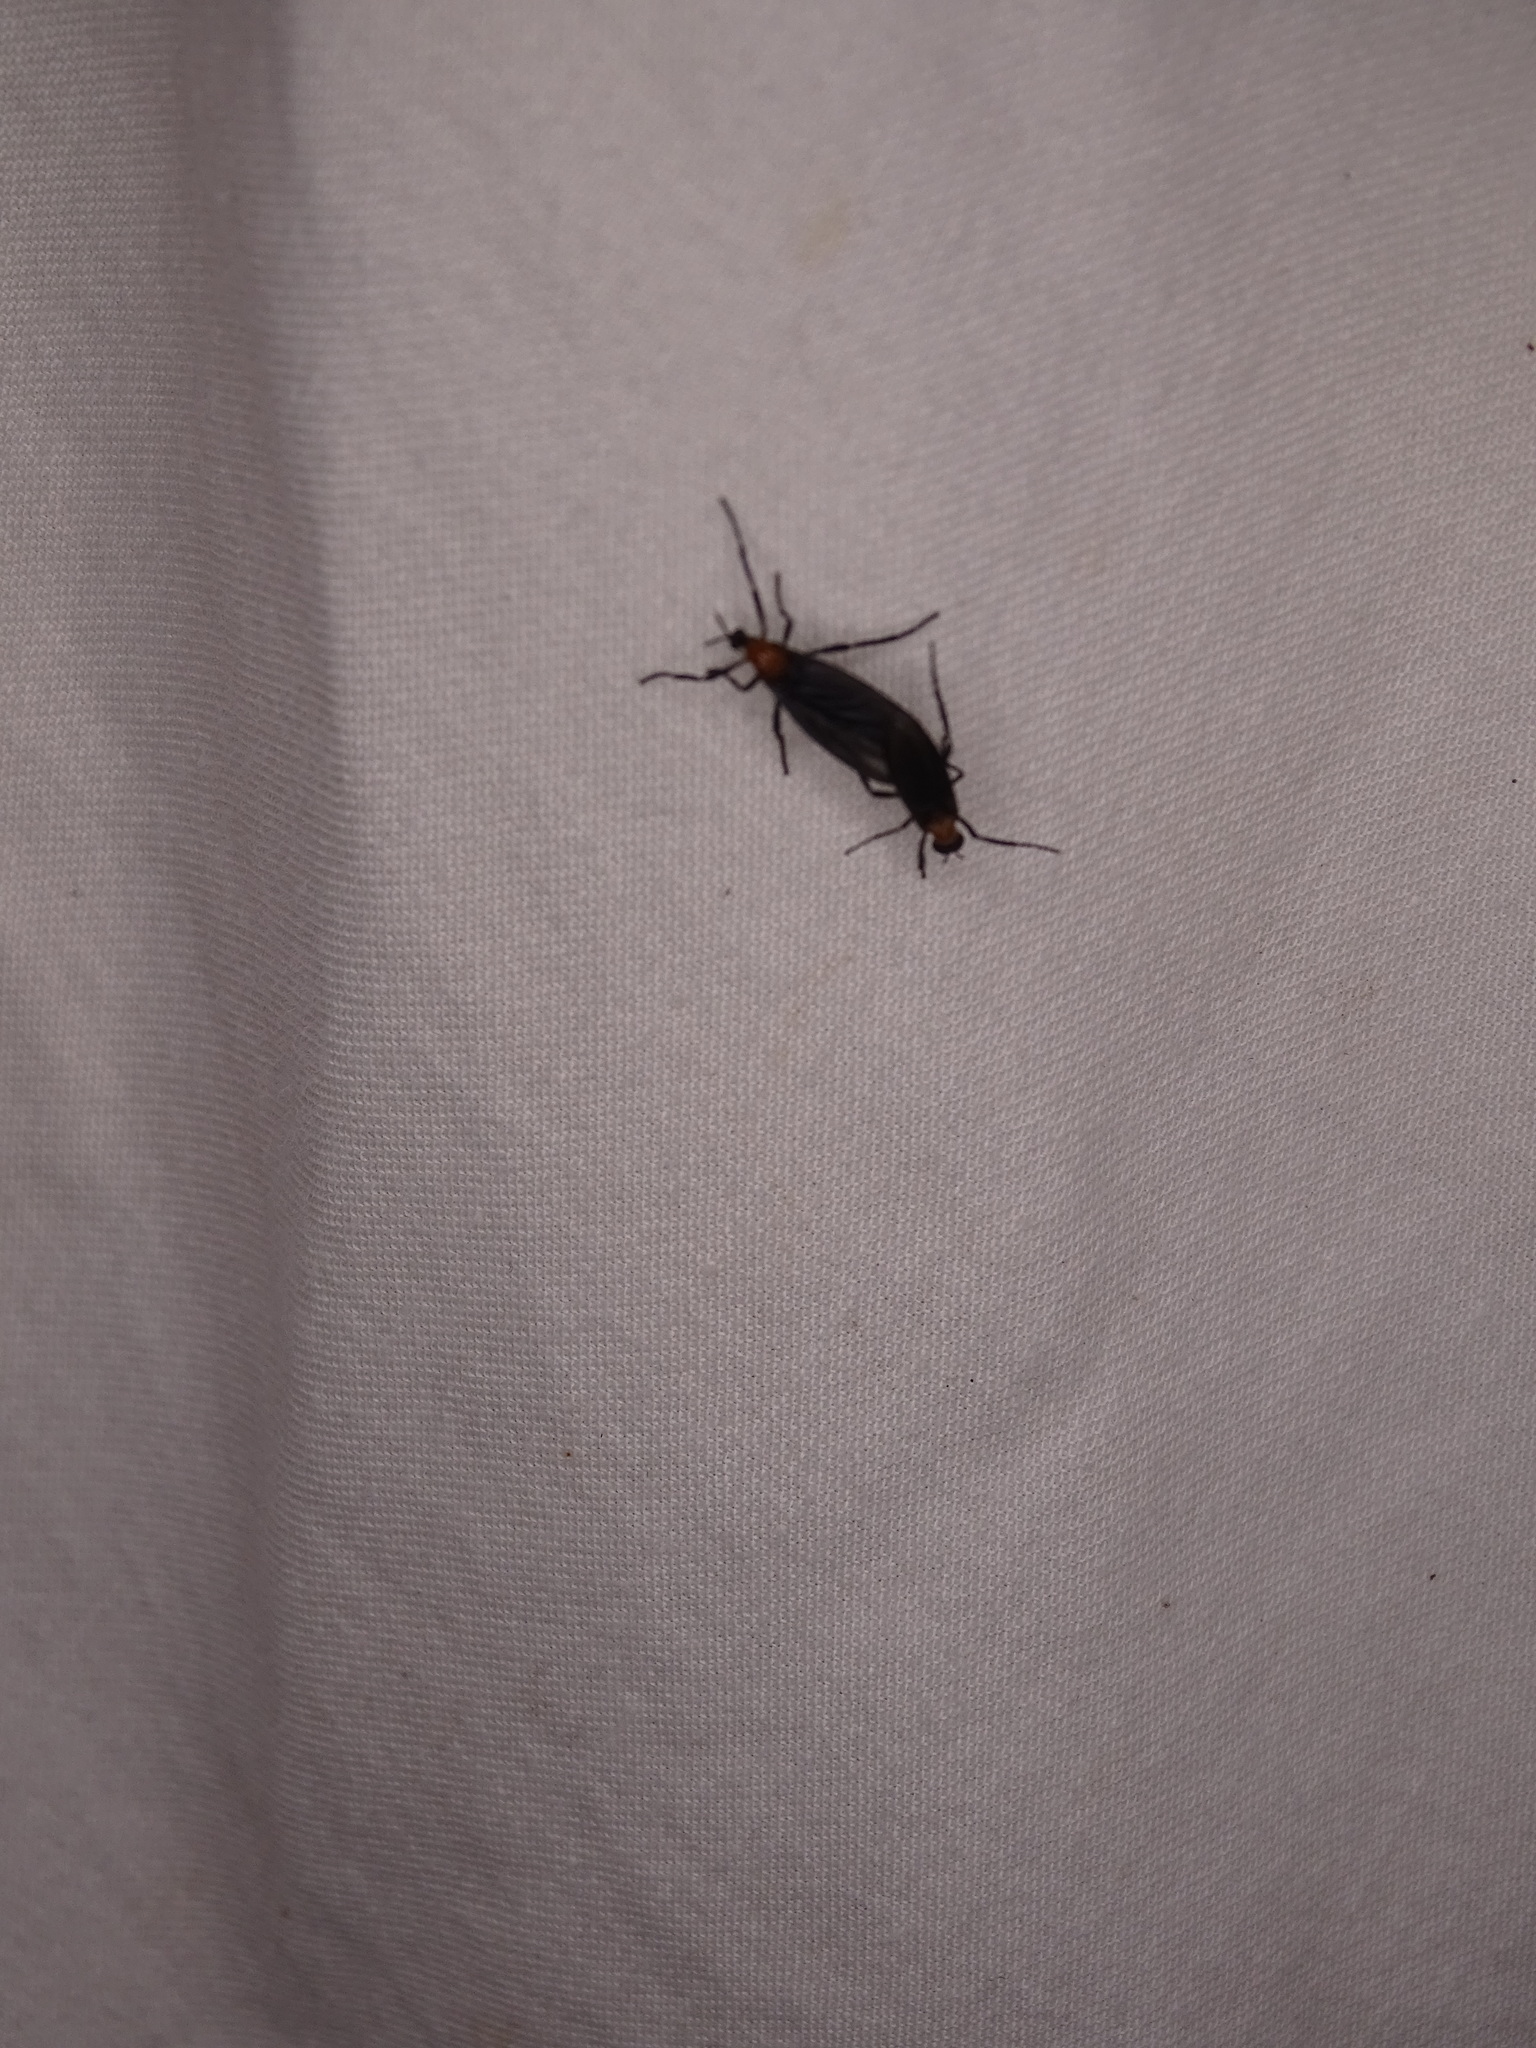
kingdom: Animalia
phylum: Arthropoda
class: Insecta
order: Diptera
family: Bibionidae
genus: Plecia
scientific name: Plecia nearctica
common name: March fly
